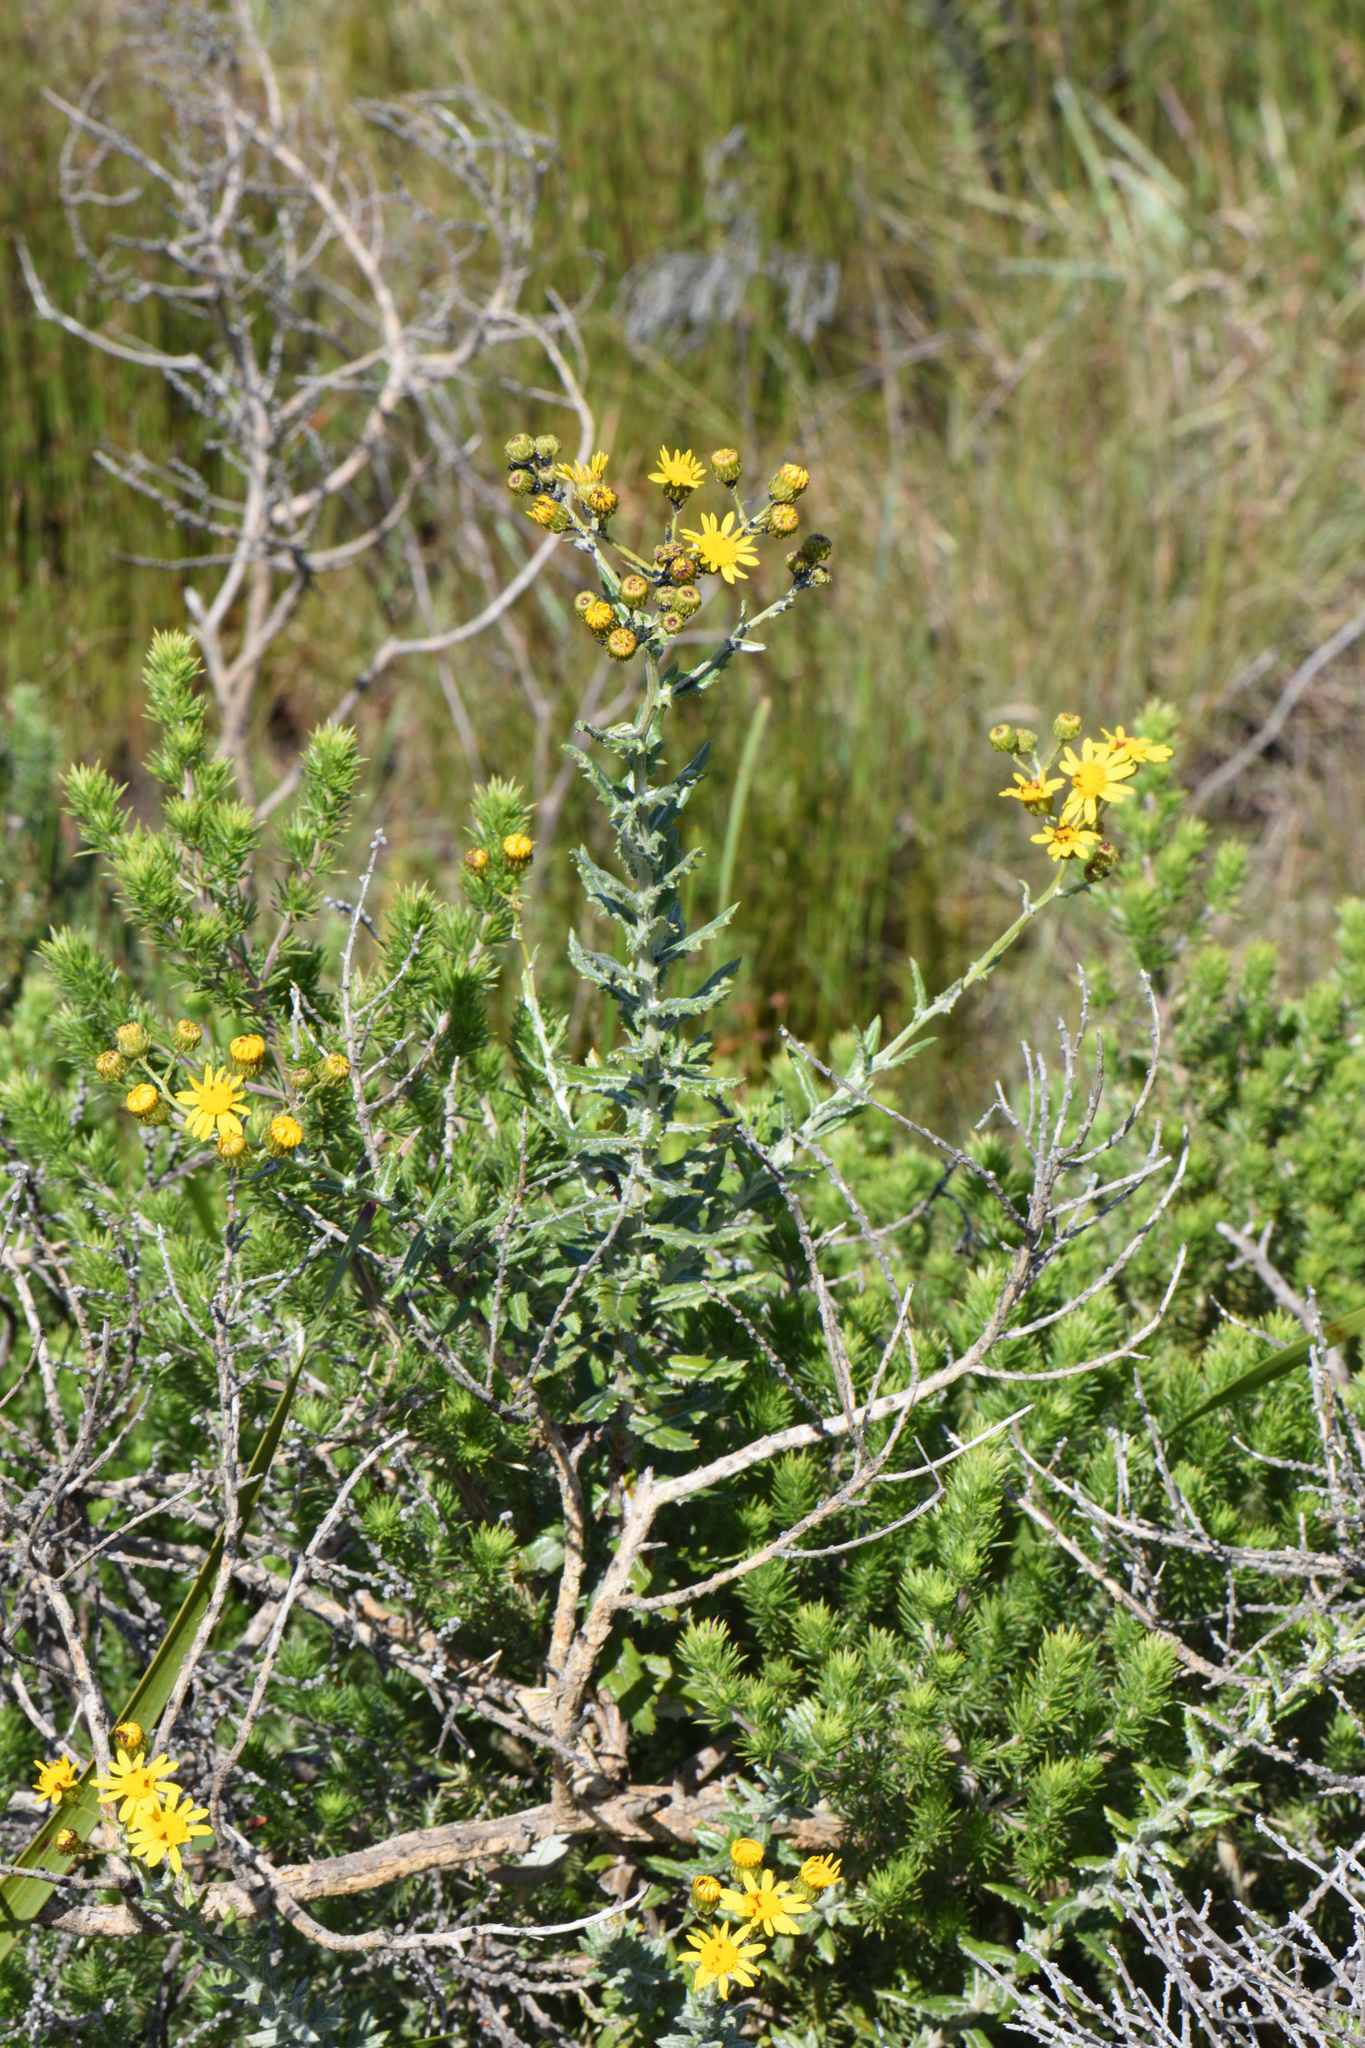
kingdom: Plantae
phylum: Tracheophyta
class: Magnoliopsida
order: Asterales
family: Asteraceae
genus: Senecio
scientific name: Senecio ilicifolius
